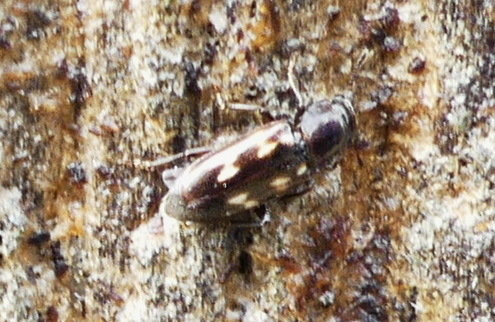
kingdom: Animalia
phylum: Arthropoda
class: Insecta
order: Coleoptera
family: Nitidulidae
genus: Glischrochilus
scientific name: Glischrochilus vittatus
